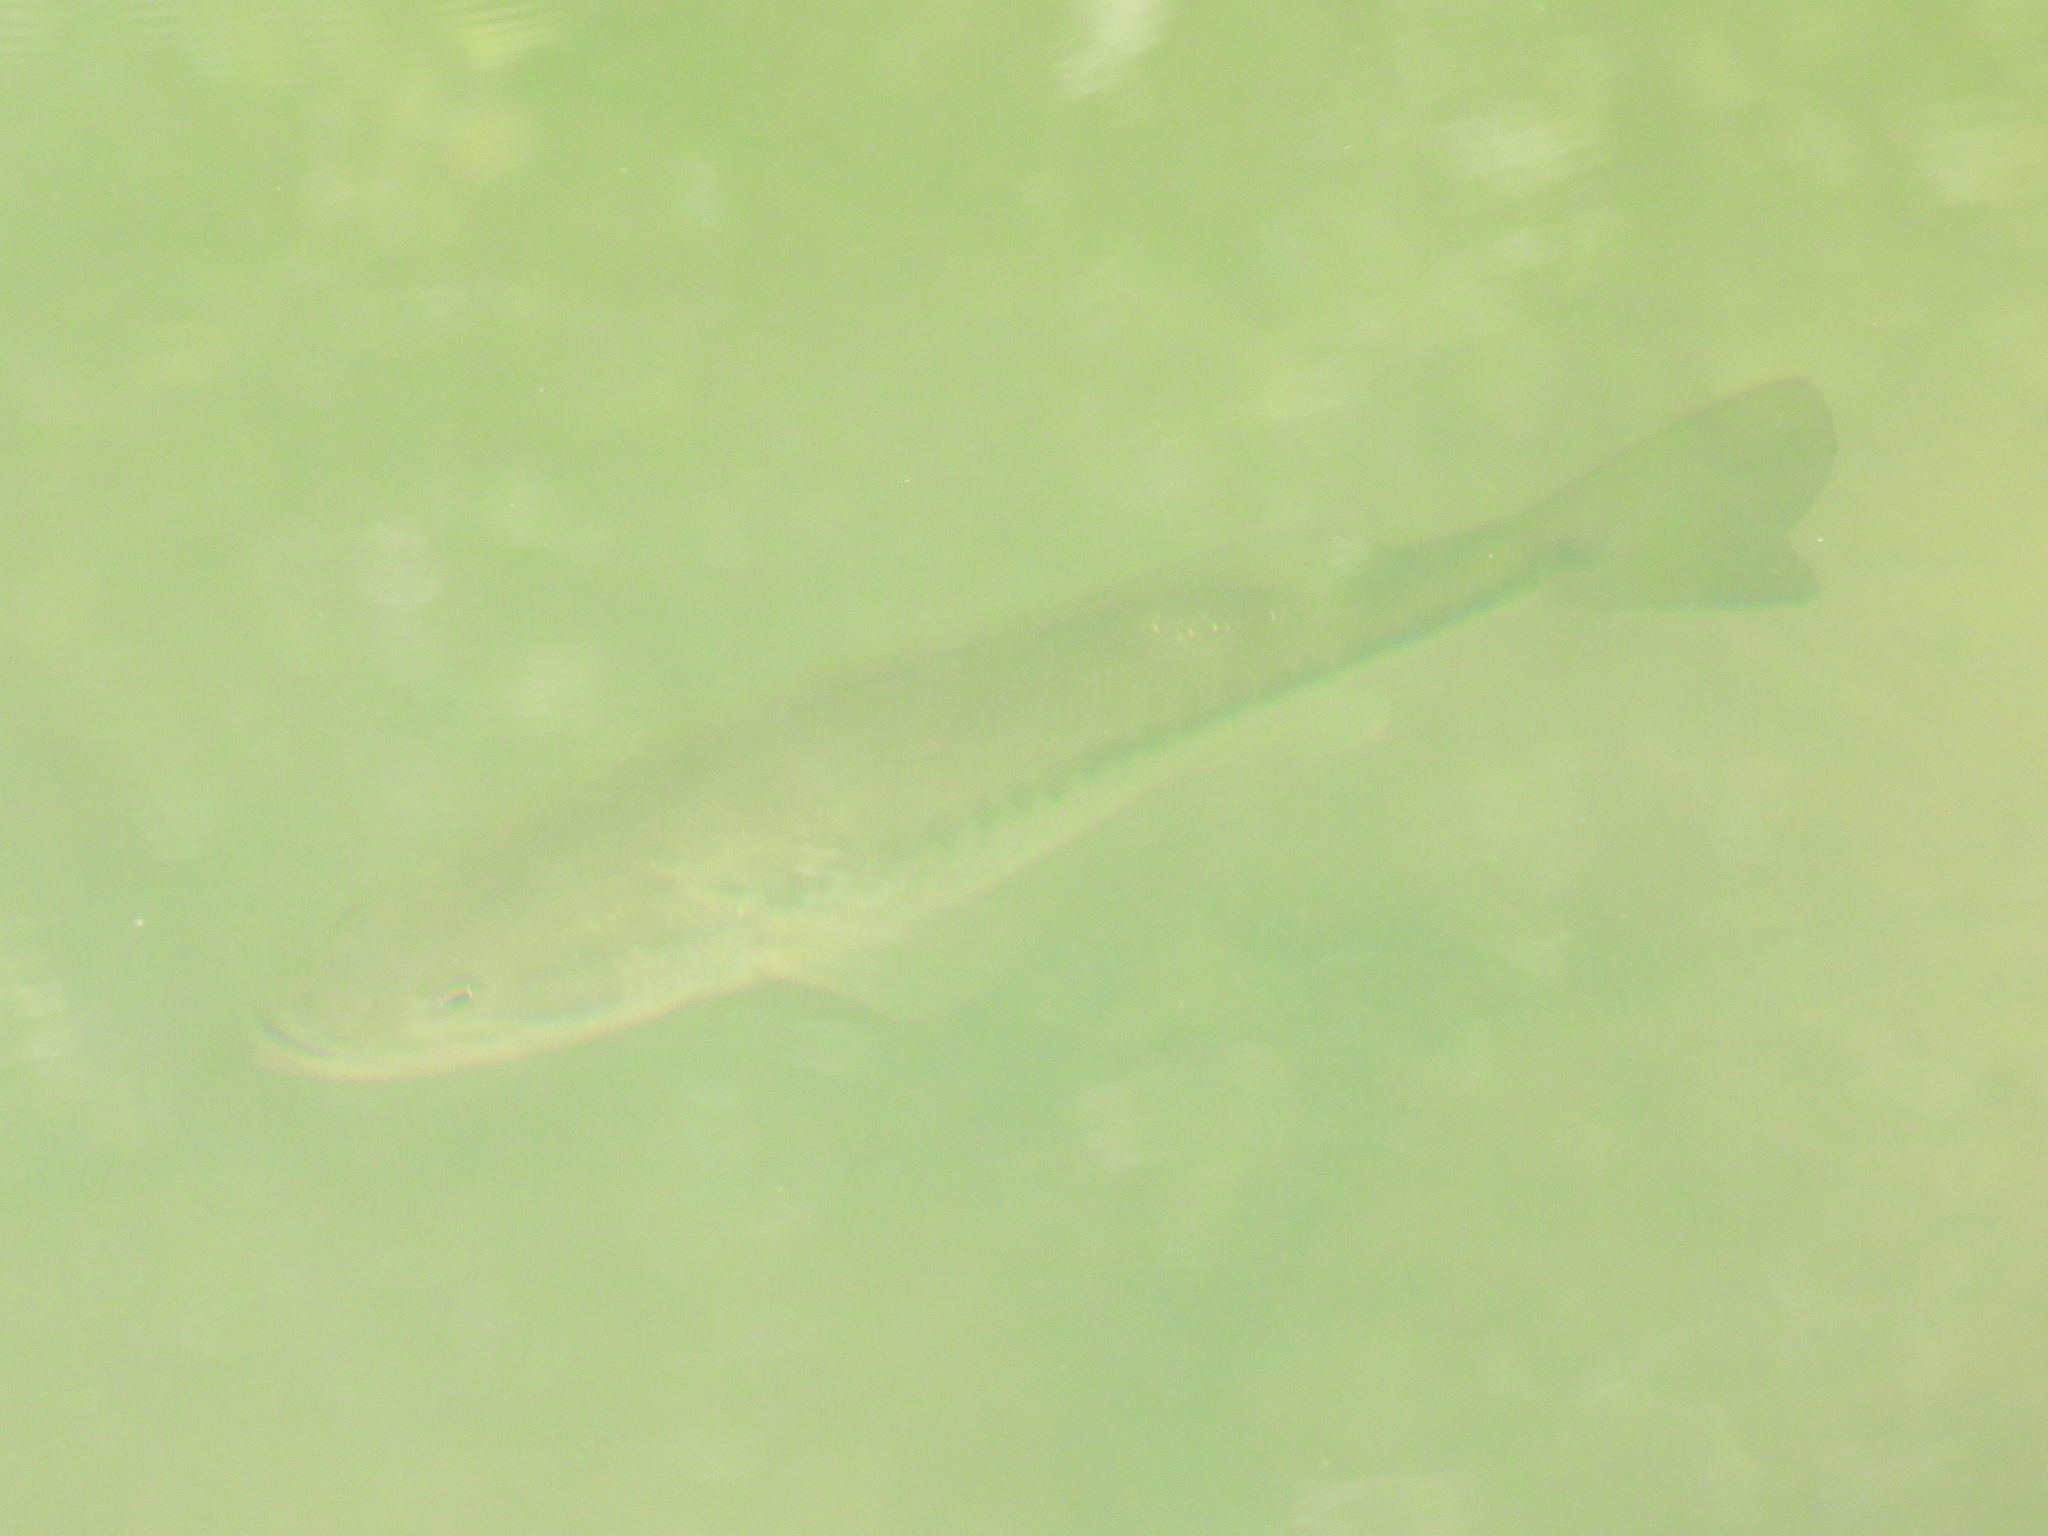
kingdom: Animalia
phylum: Chordata
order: Perciformes
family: Centrarchidae
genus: Micropterus
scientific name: Micropterus
